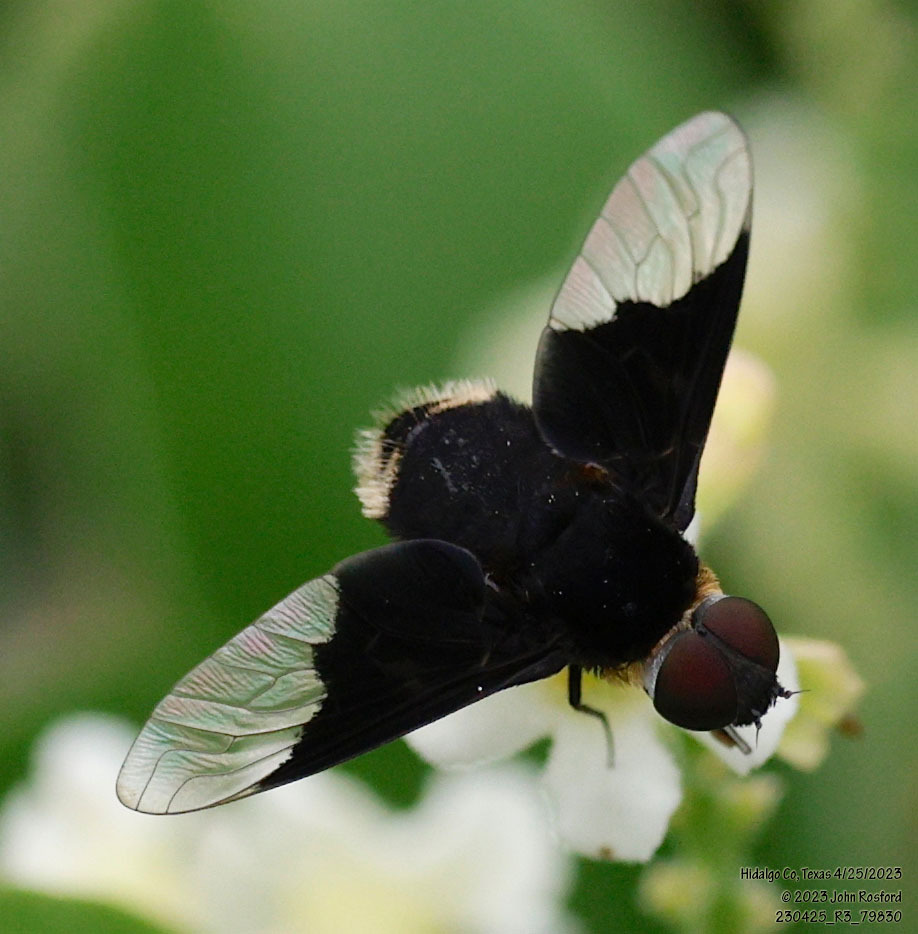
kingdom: Animalia
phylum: Arthropoda
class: Insecta
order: Diptera
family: Bombyliidae
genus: Ins
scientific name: Ins celeris
